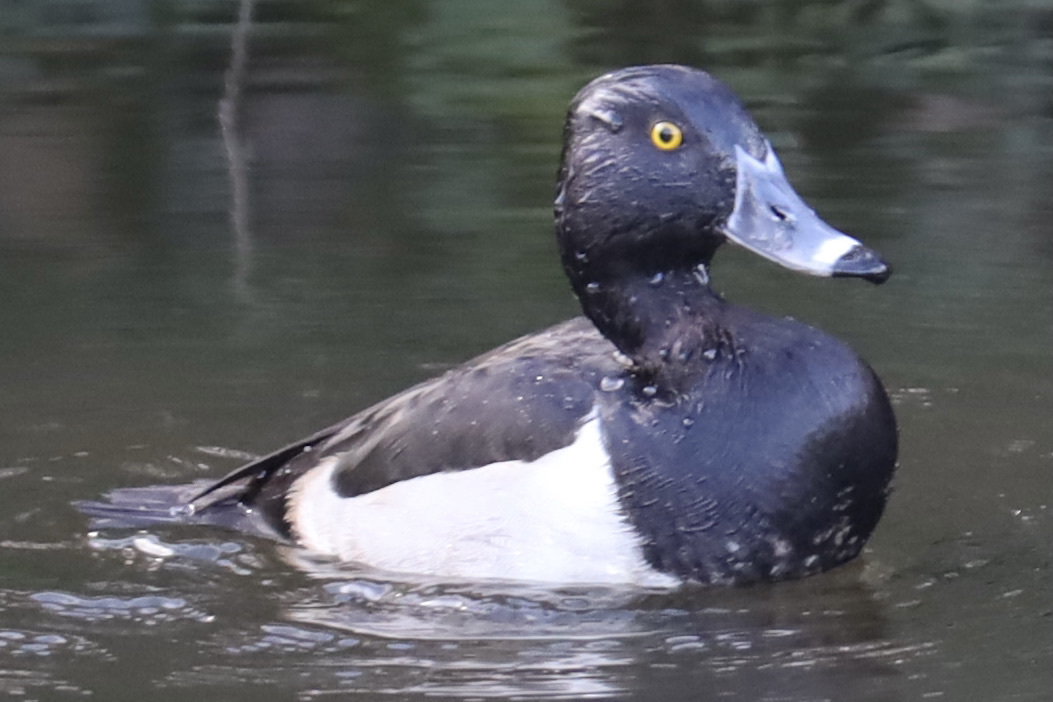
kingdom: Animalia
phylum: Chordata
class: Aves
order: Anseriformes
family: Anatidae
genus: Aythya
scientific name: Aythya collaris
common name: Ring-necked duck
